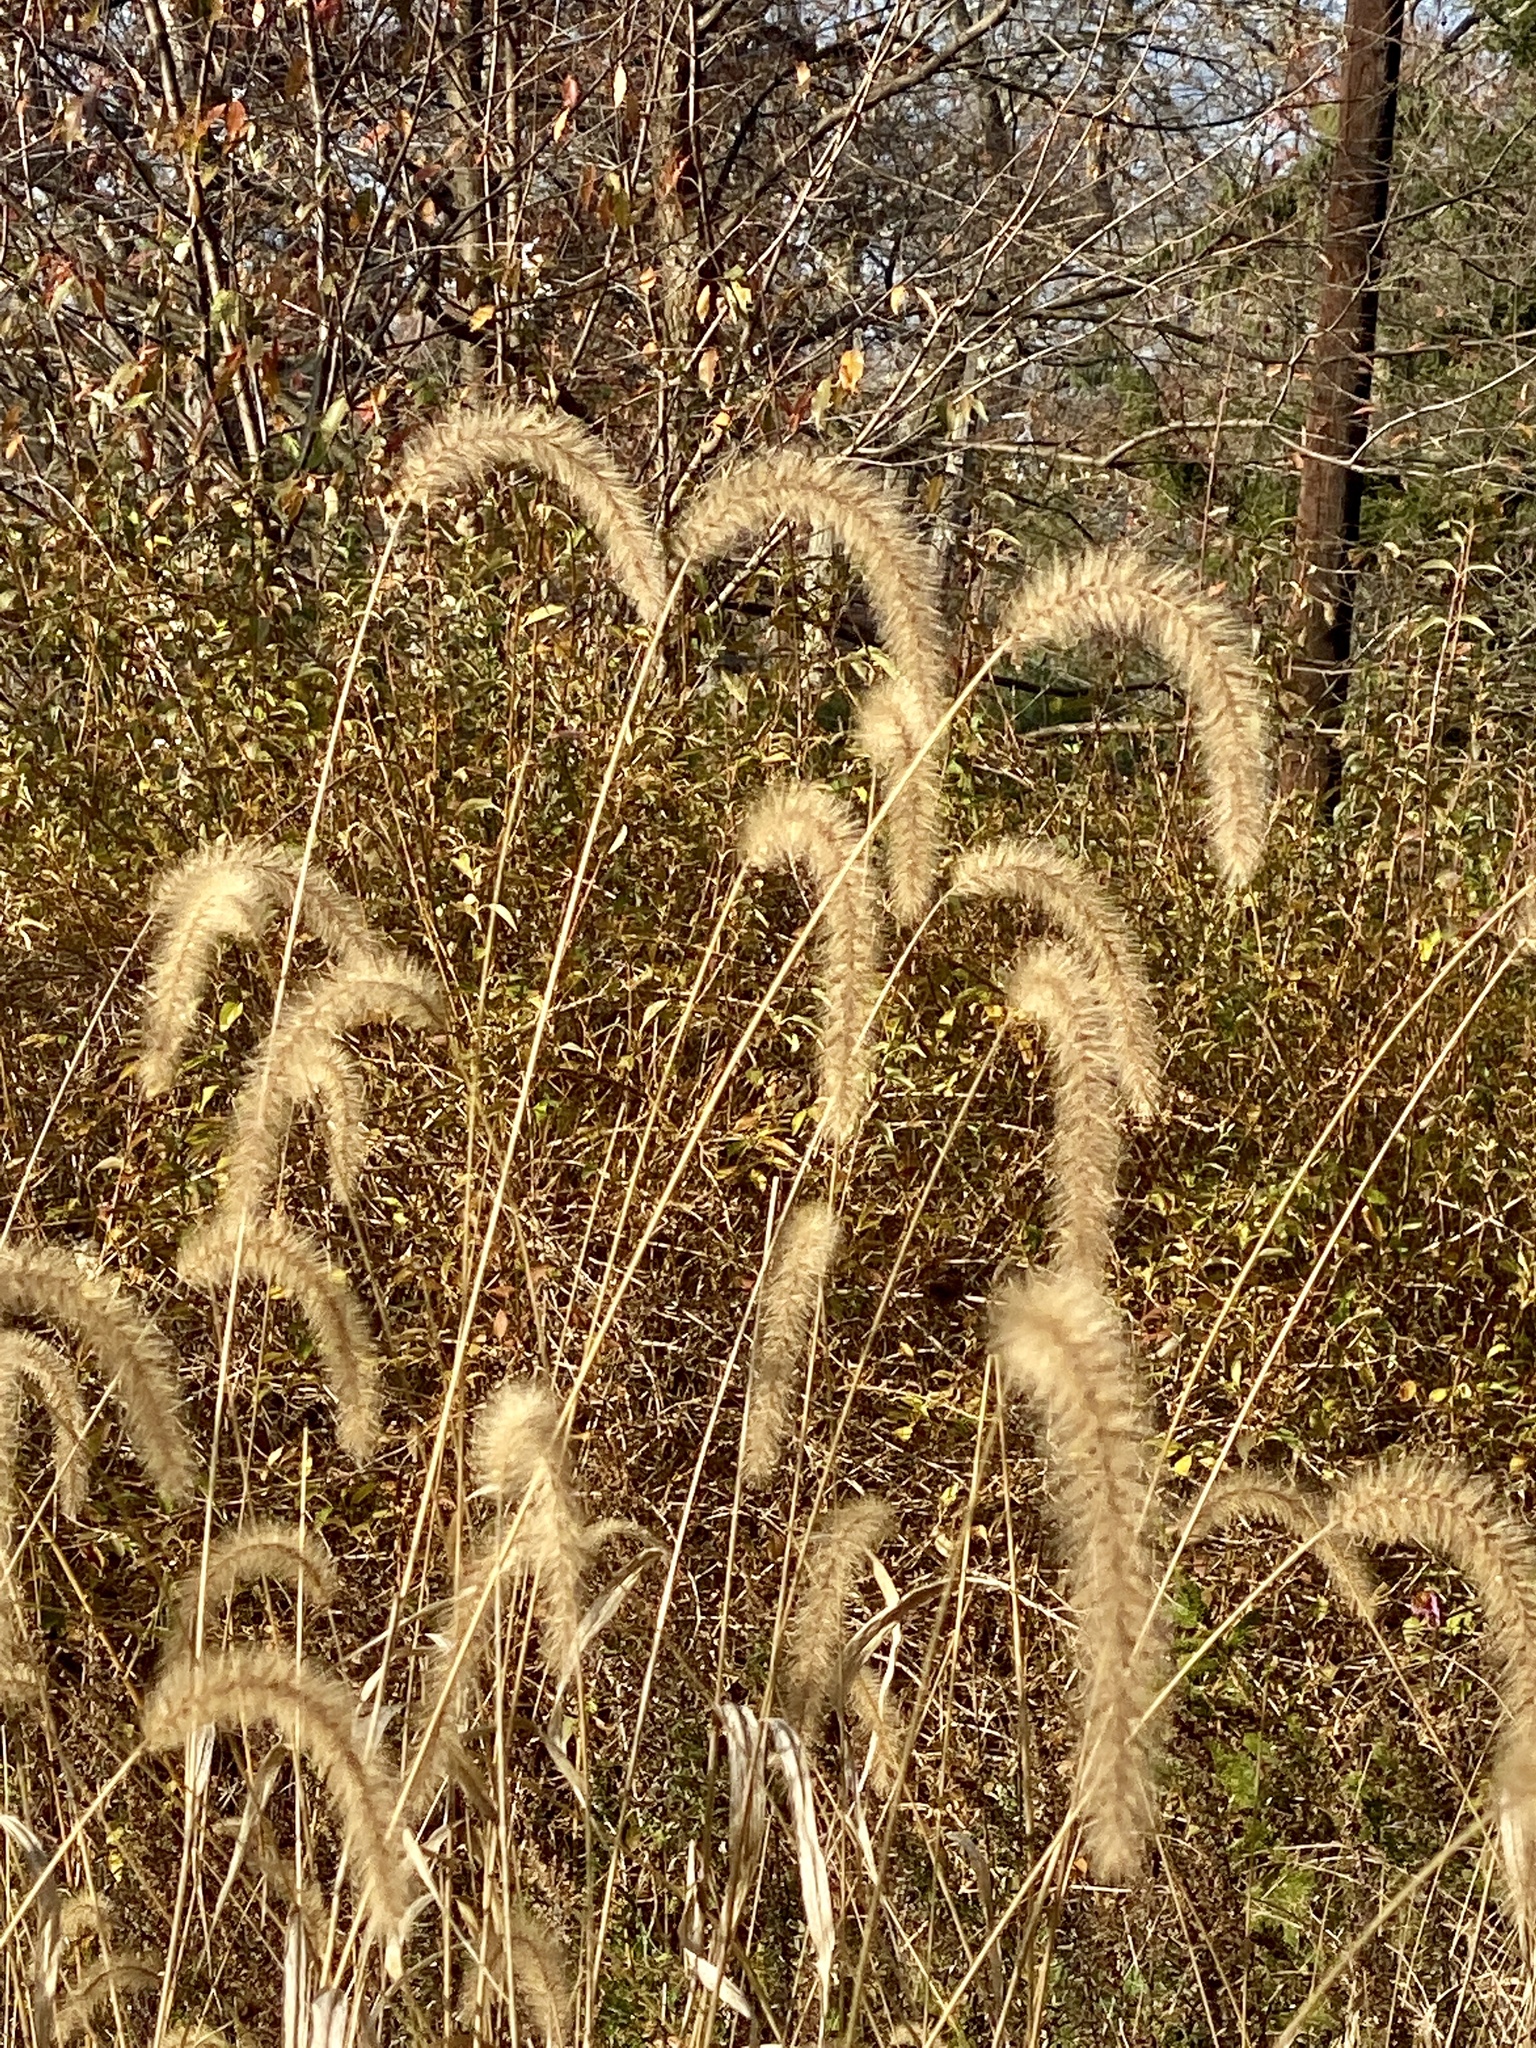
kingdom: Plantae
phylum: Tracheophyta
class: Liliopsida
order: Poales
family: Poaceae
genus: Setaria
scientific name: Setaria faberi
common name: Nodding bristle-grass
